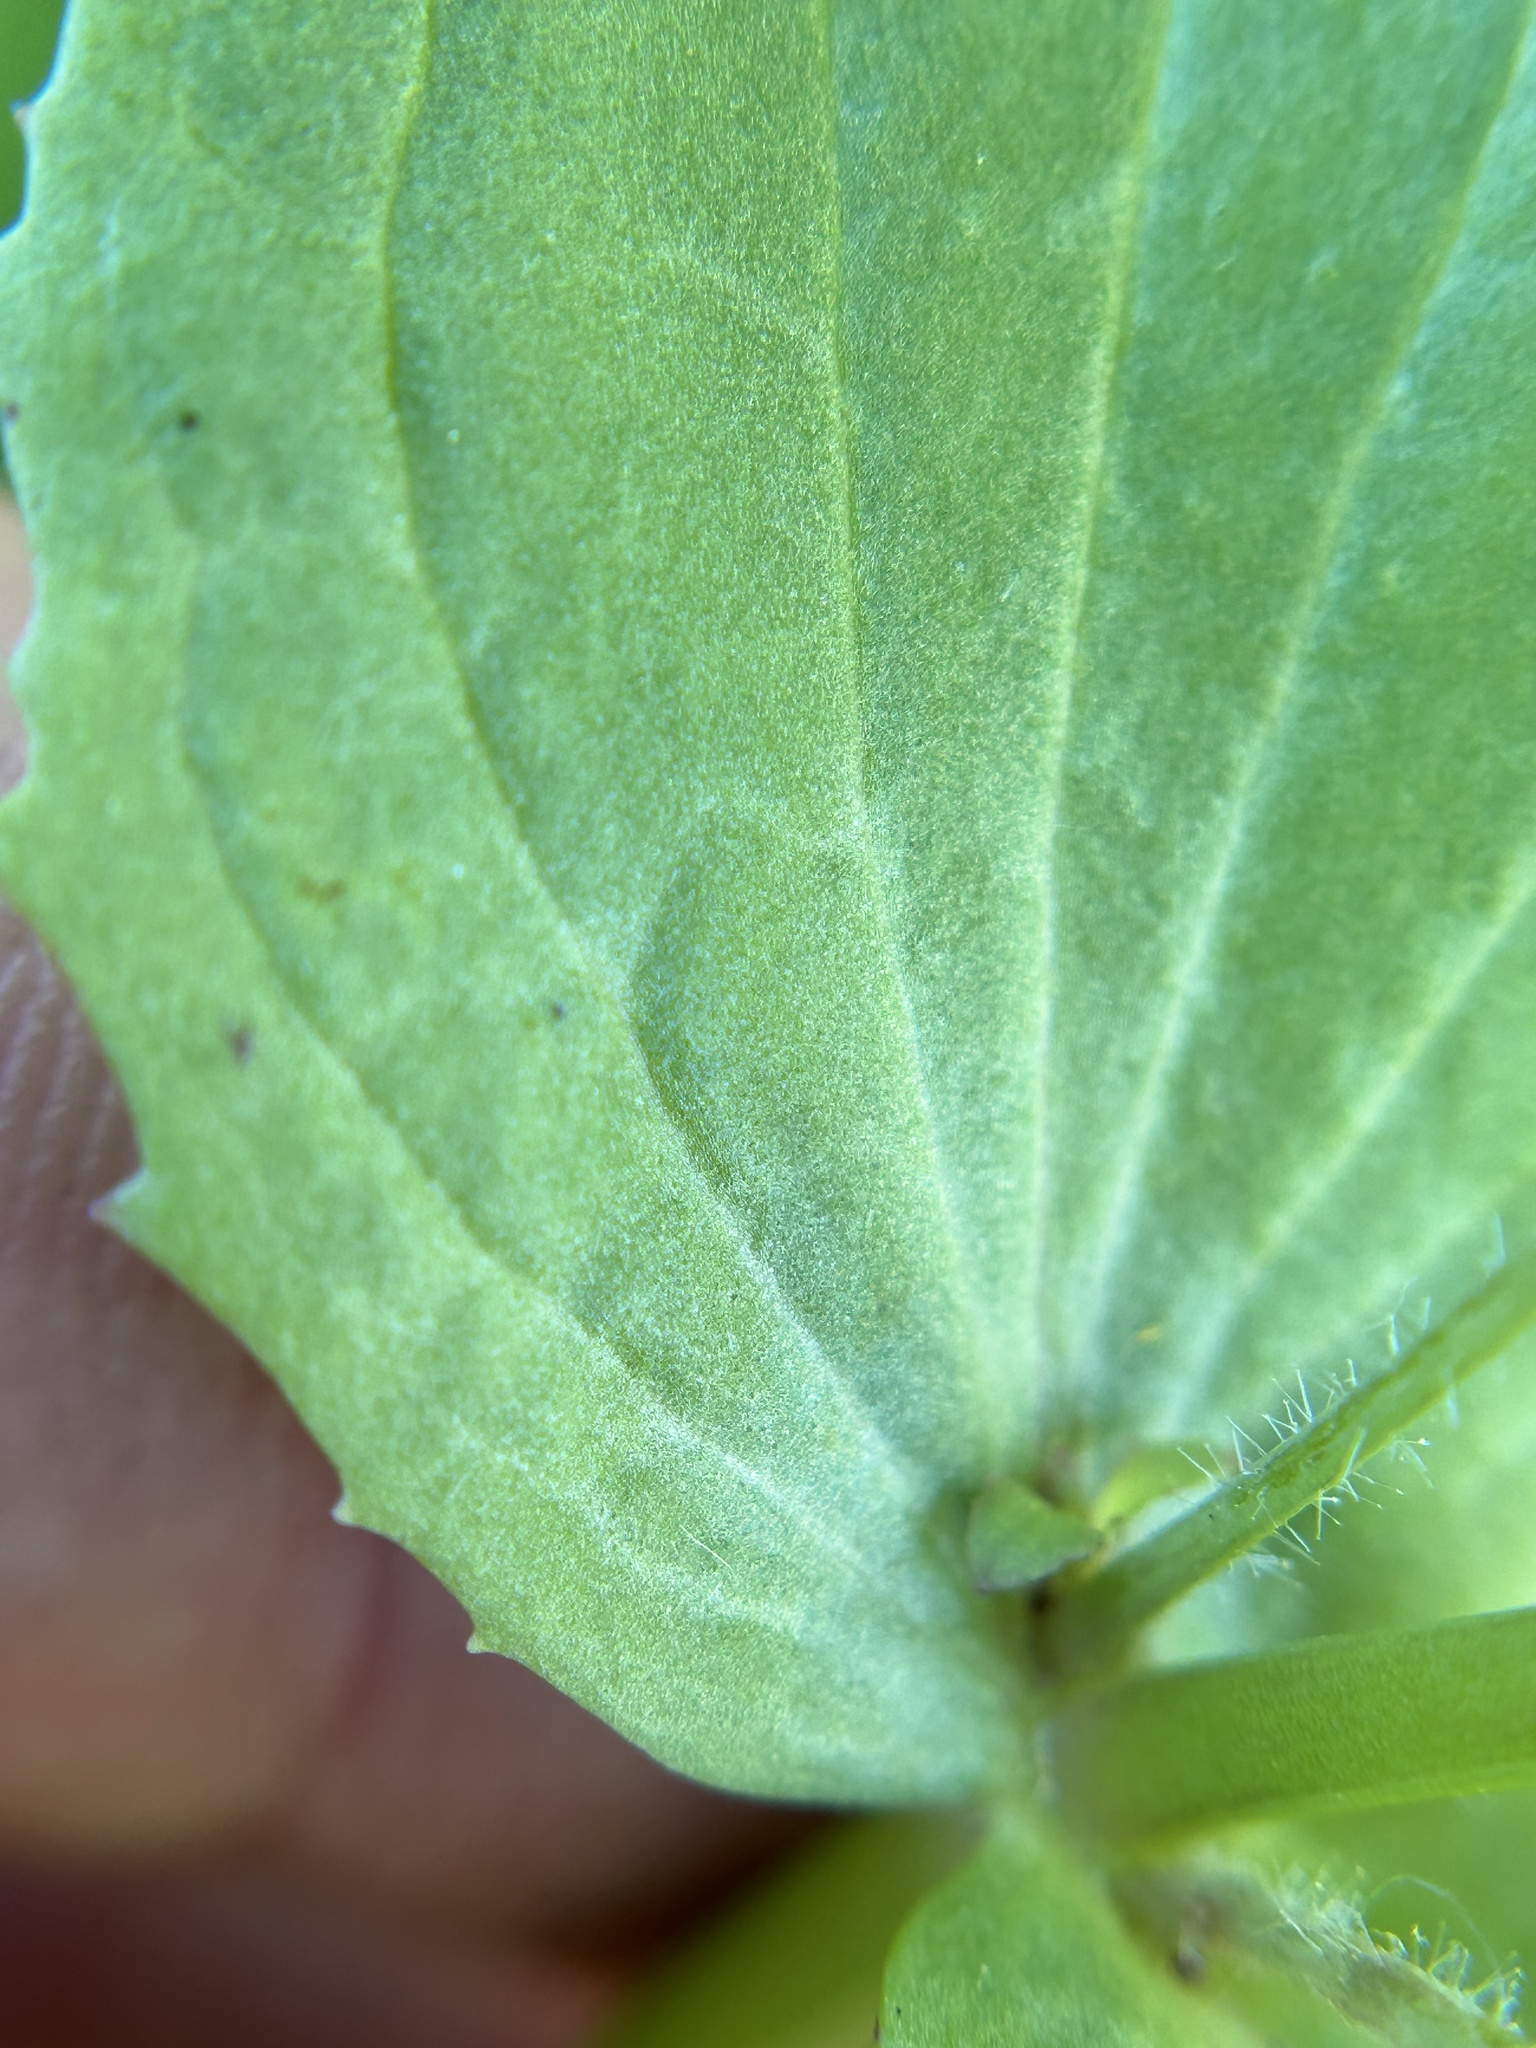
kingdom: Plantae
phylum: Tracheophyta
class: Magnoliopsida
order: Lamiales
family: Phrymaceae
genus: Erythranthe
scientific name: Erythranthe guttata
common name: Monkeyflower
